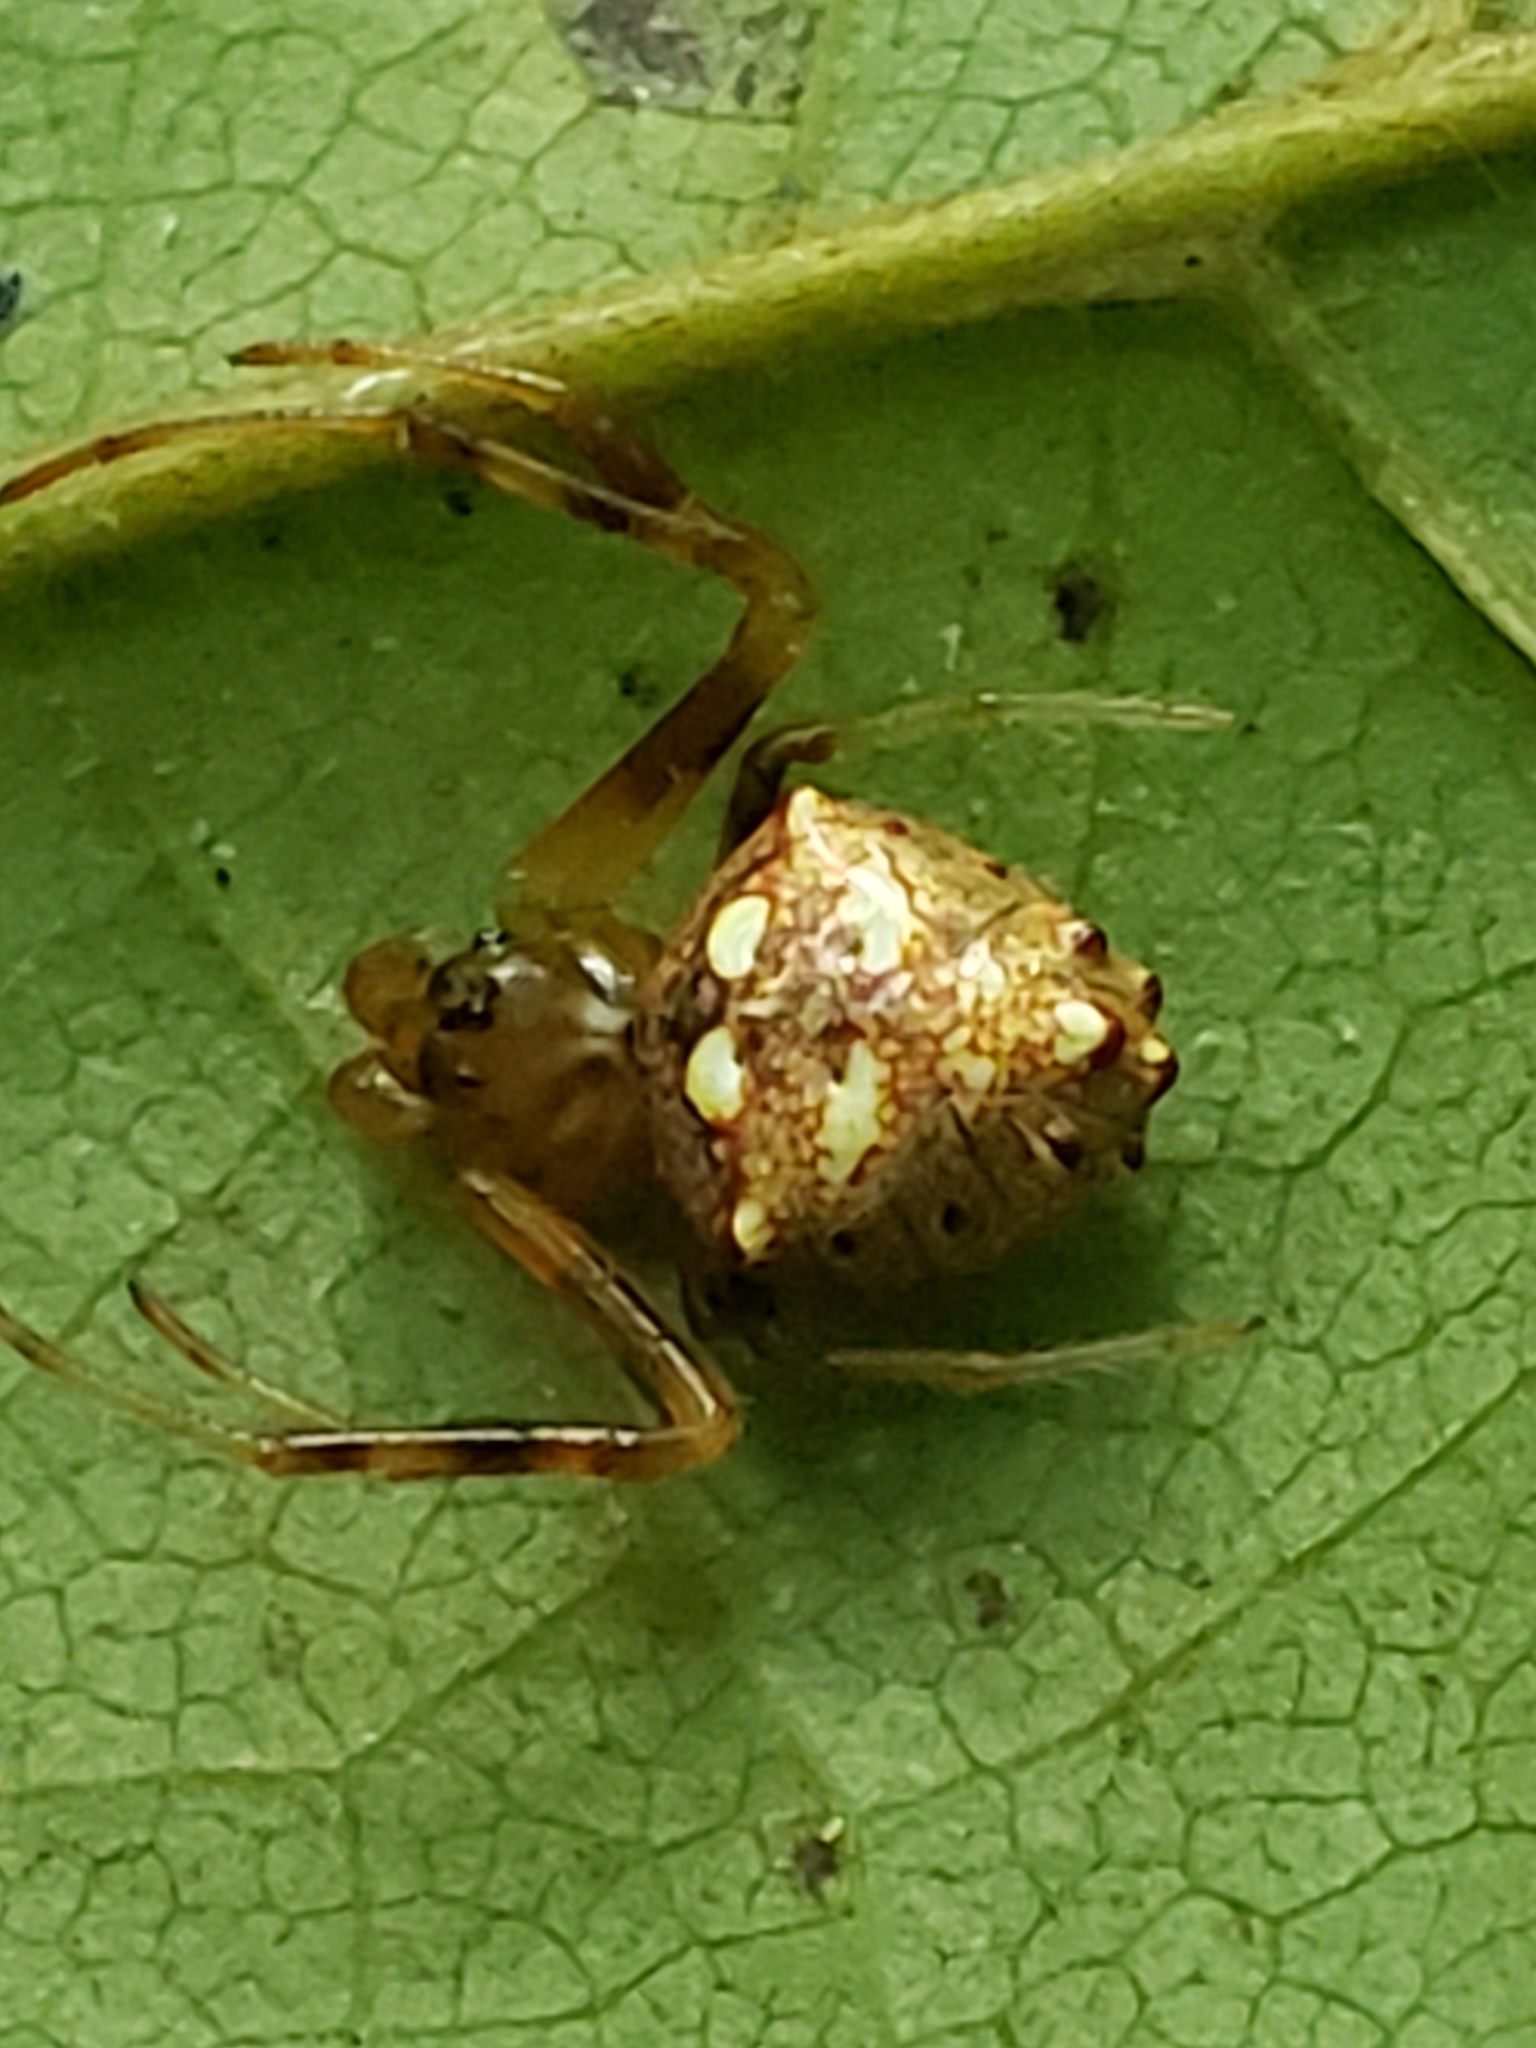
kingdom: Animalia
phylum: Arthropoda
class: Arachnida
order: Araneae
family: Araneidae
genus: Verrucosa
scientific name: Verrucosa arenata
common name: Orb weavers
